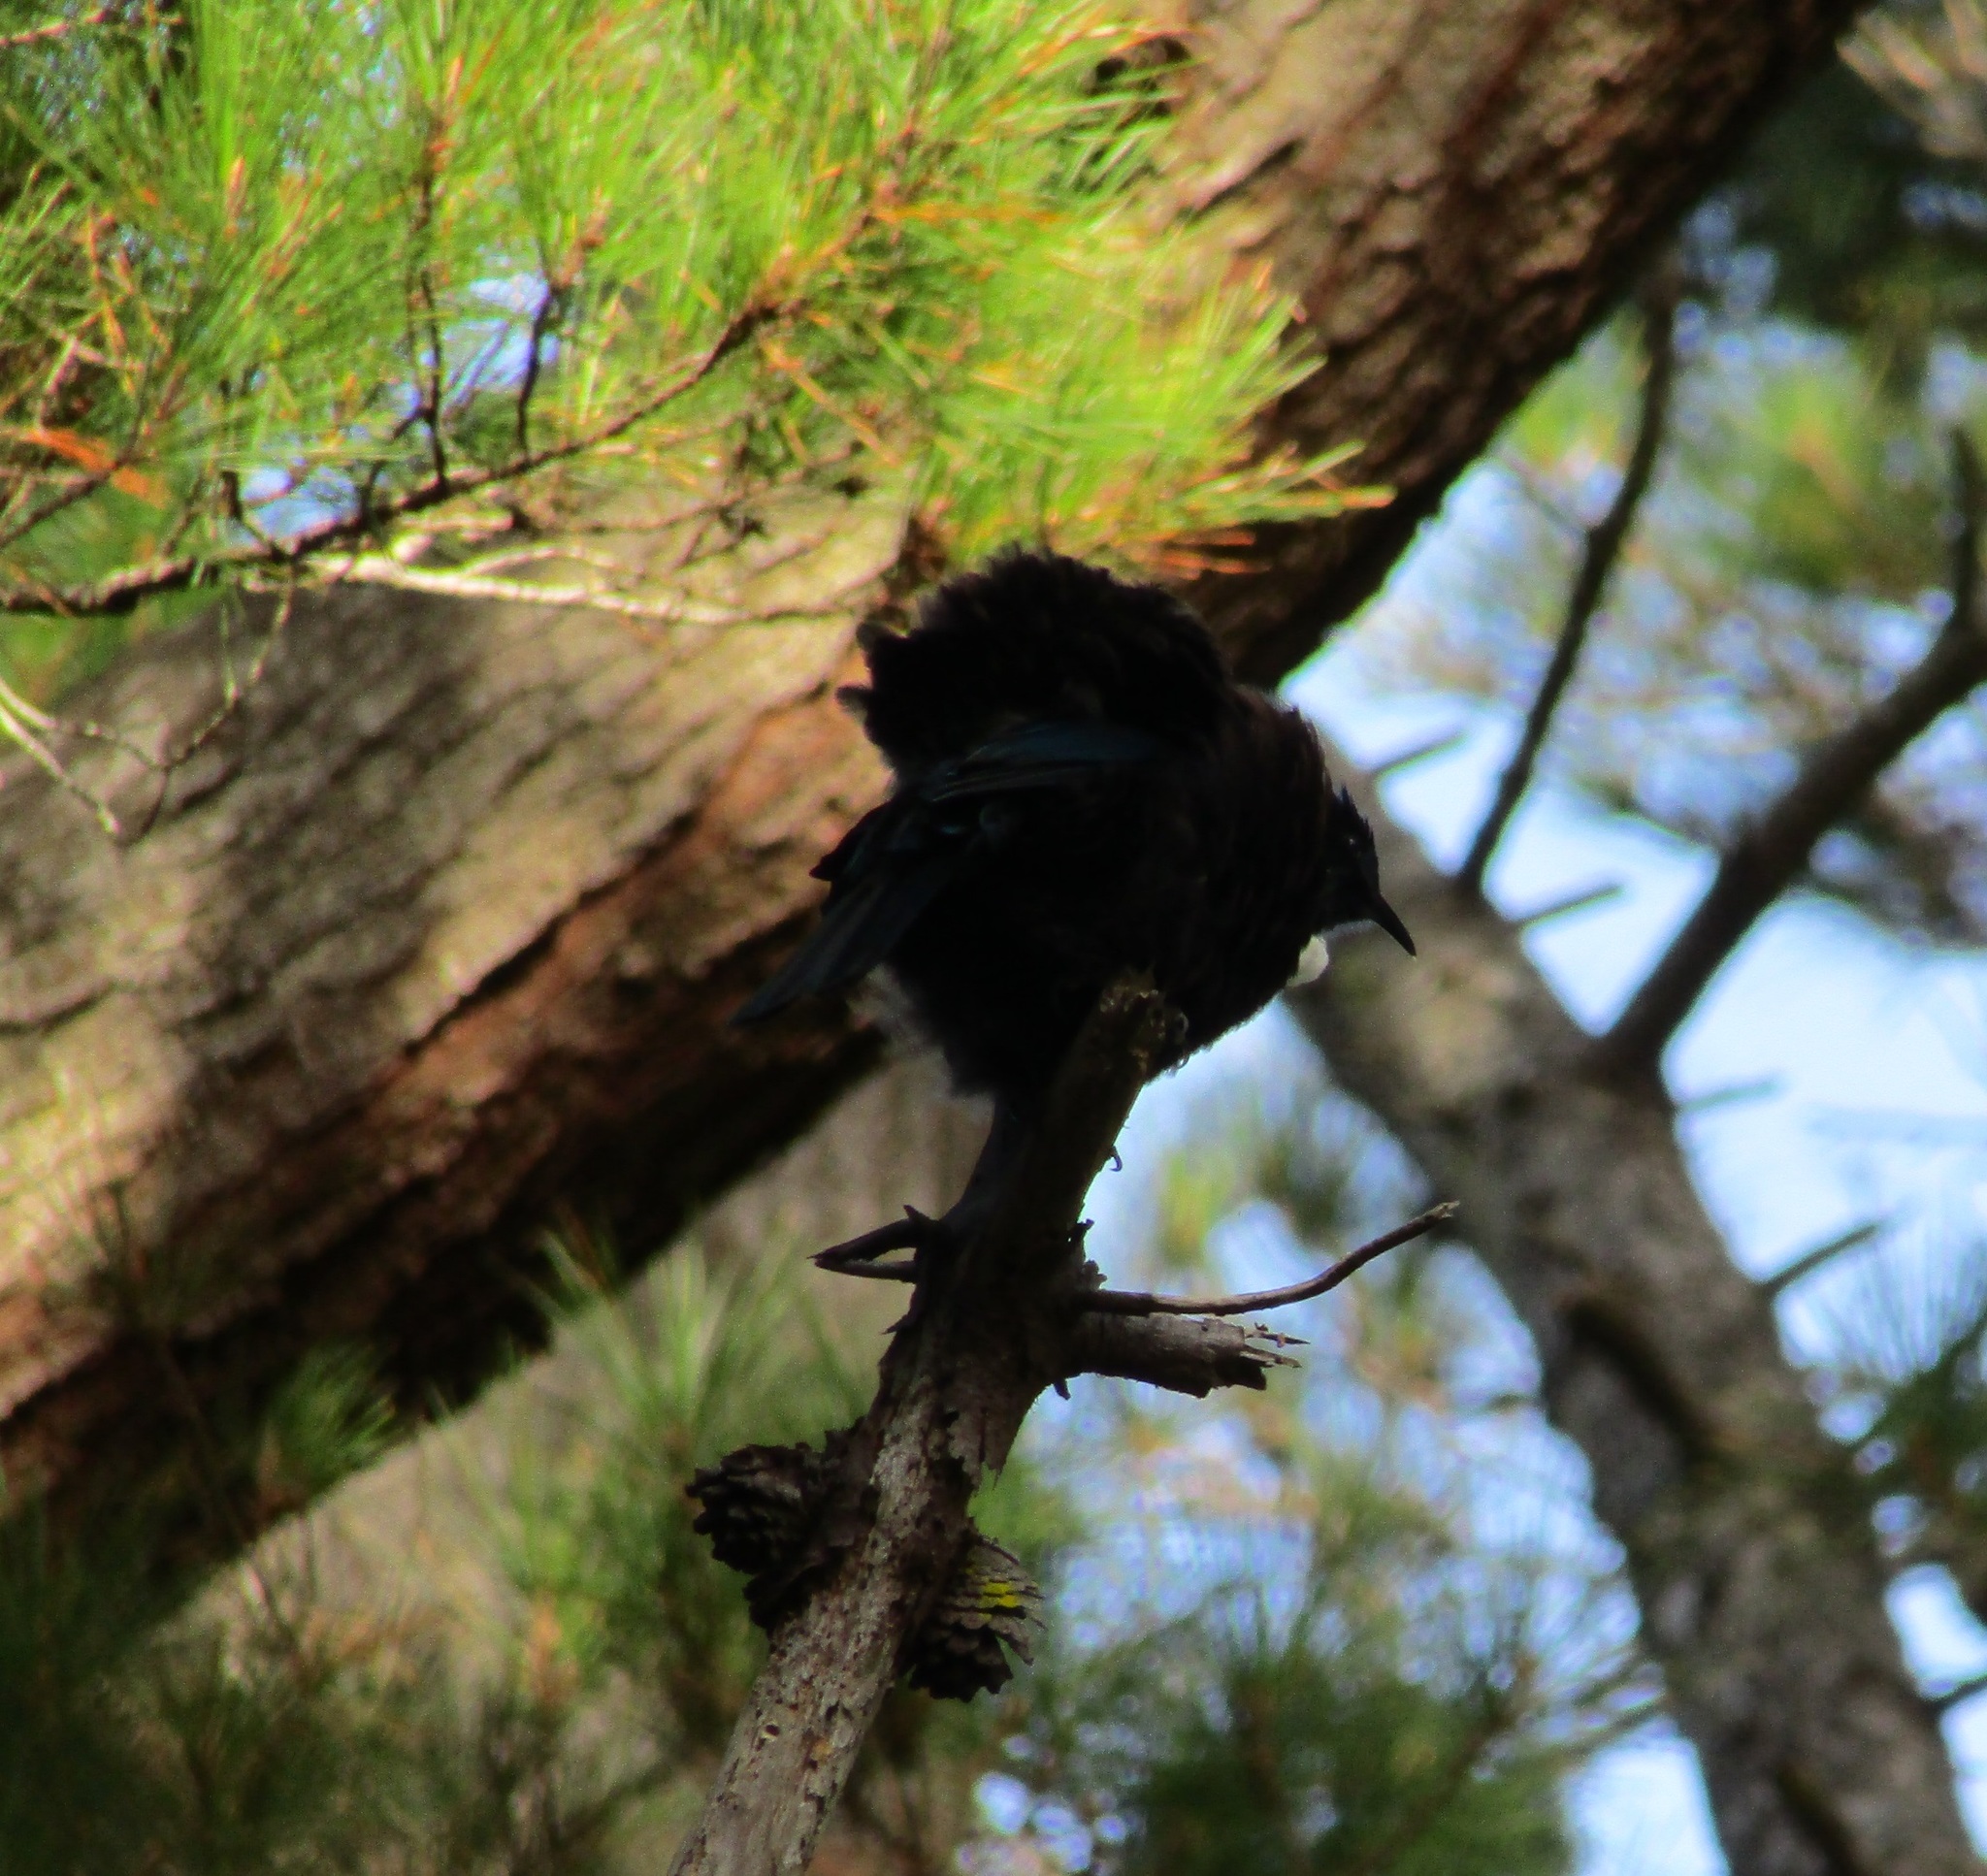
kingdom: Animalia
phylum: Chordata
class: Aves
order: Passeriformes
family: Meliphagidae
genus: Prosthemadera
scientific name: Prosthemadera novaeseelandiae
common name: Tui
